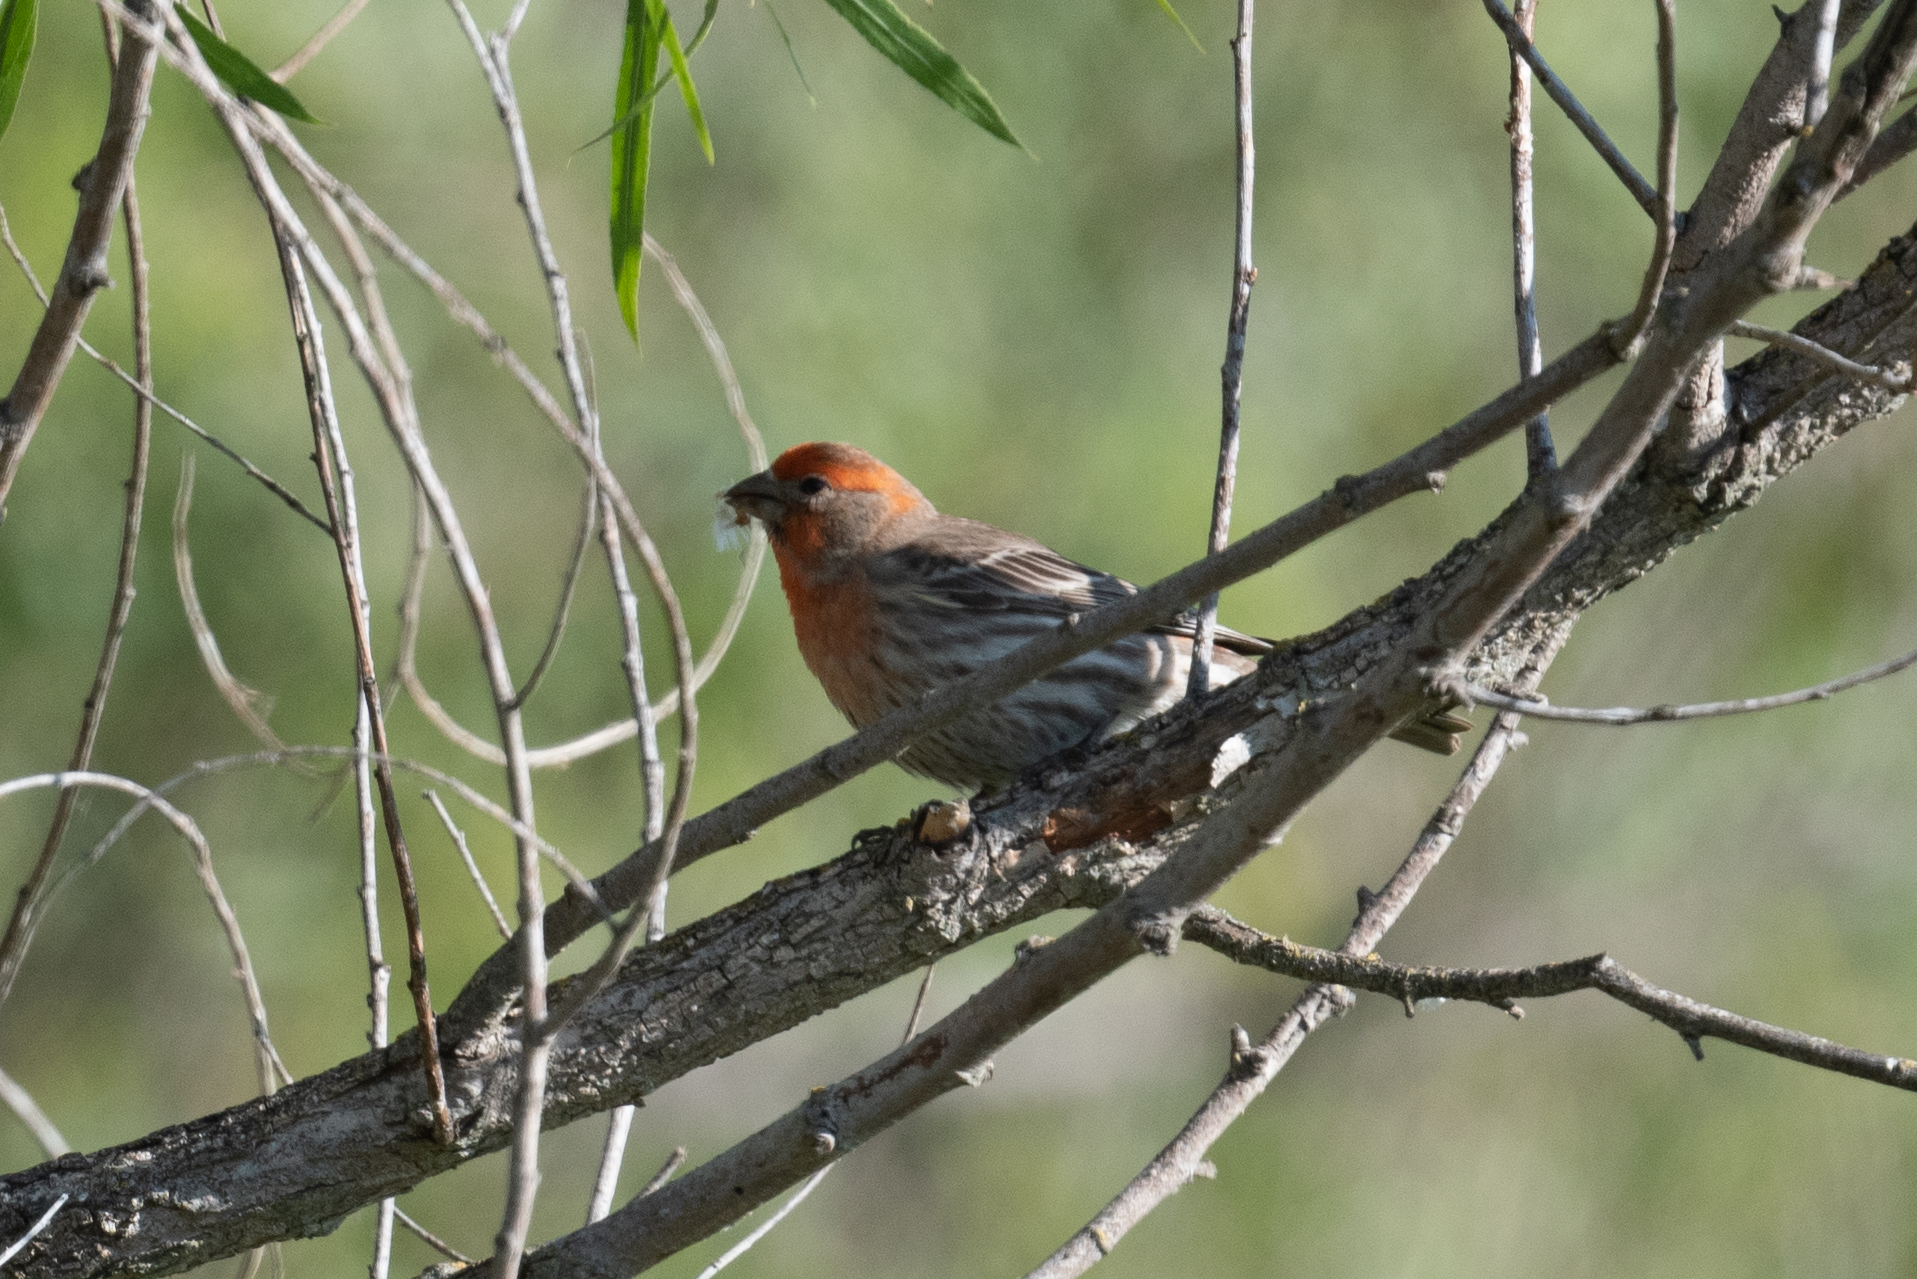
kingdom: Animalia
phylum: Chordata
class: Aves
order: Passeriformes
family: Fringillidae
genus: Haemorhous
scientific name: Haemorhous mexicanus
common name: House finch
